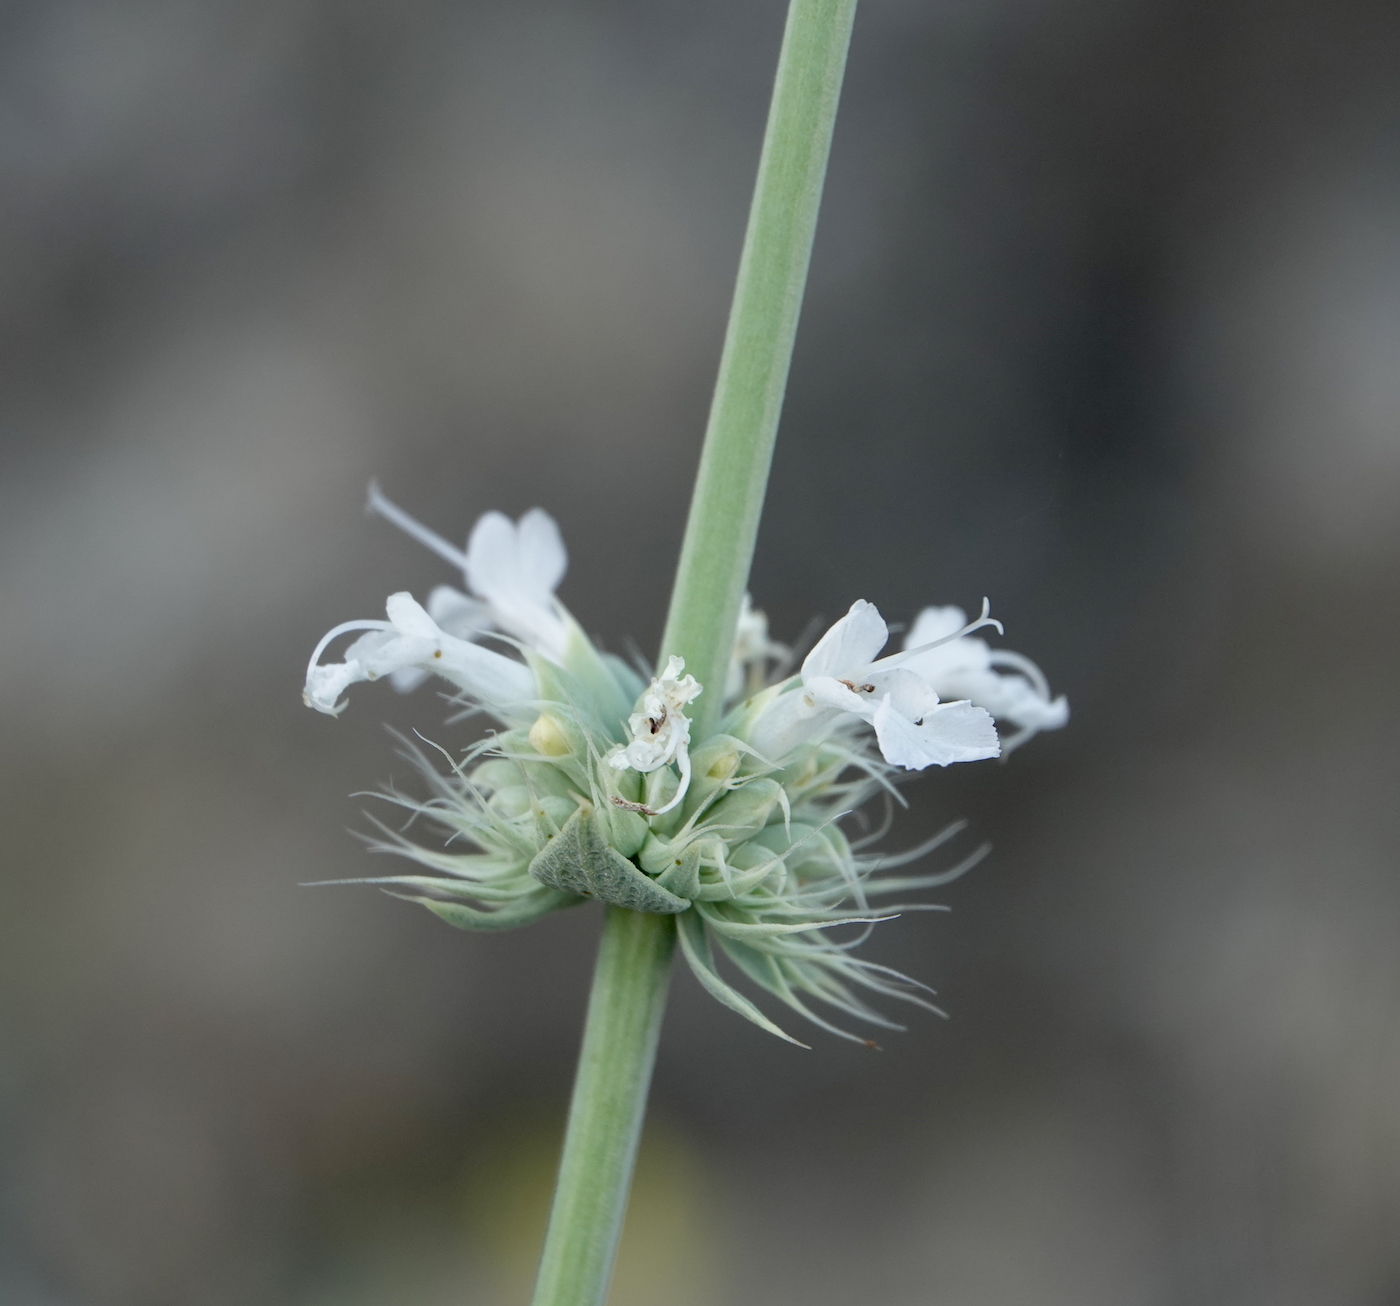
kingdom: Plantae
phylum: Tracheophyta
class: Magnoliopsida
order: Lamiales
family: Lamiaceae
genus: Salvia
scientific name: Salvia vaseyi
